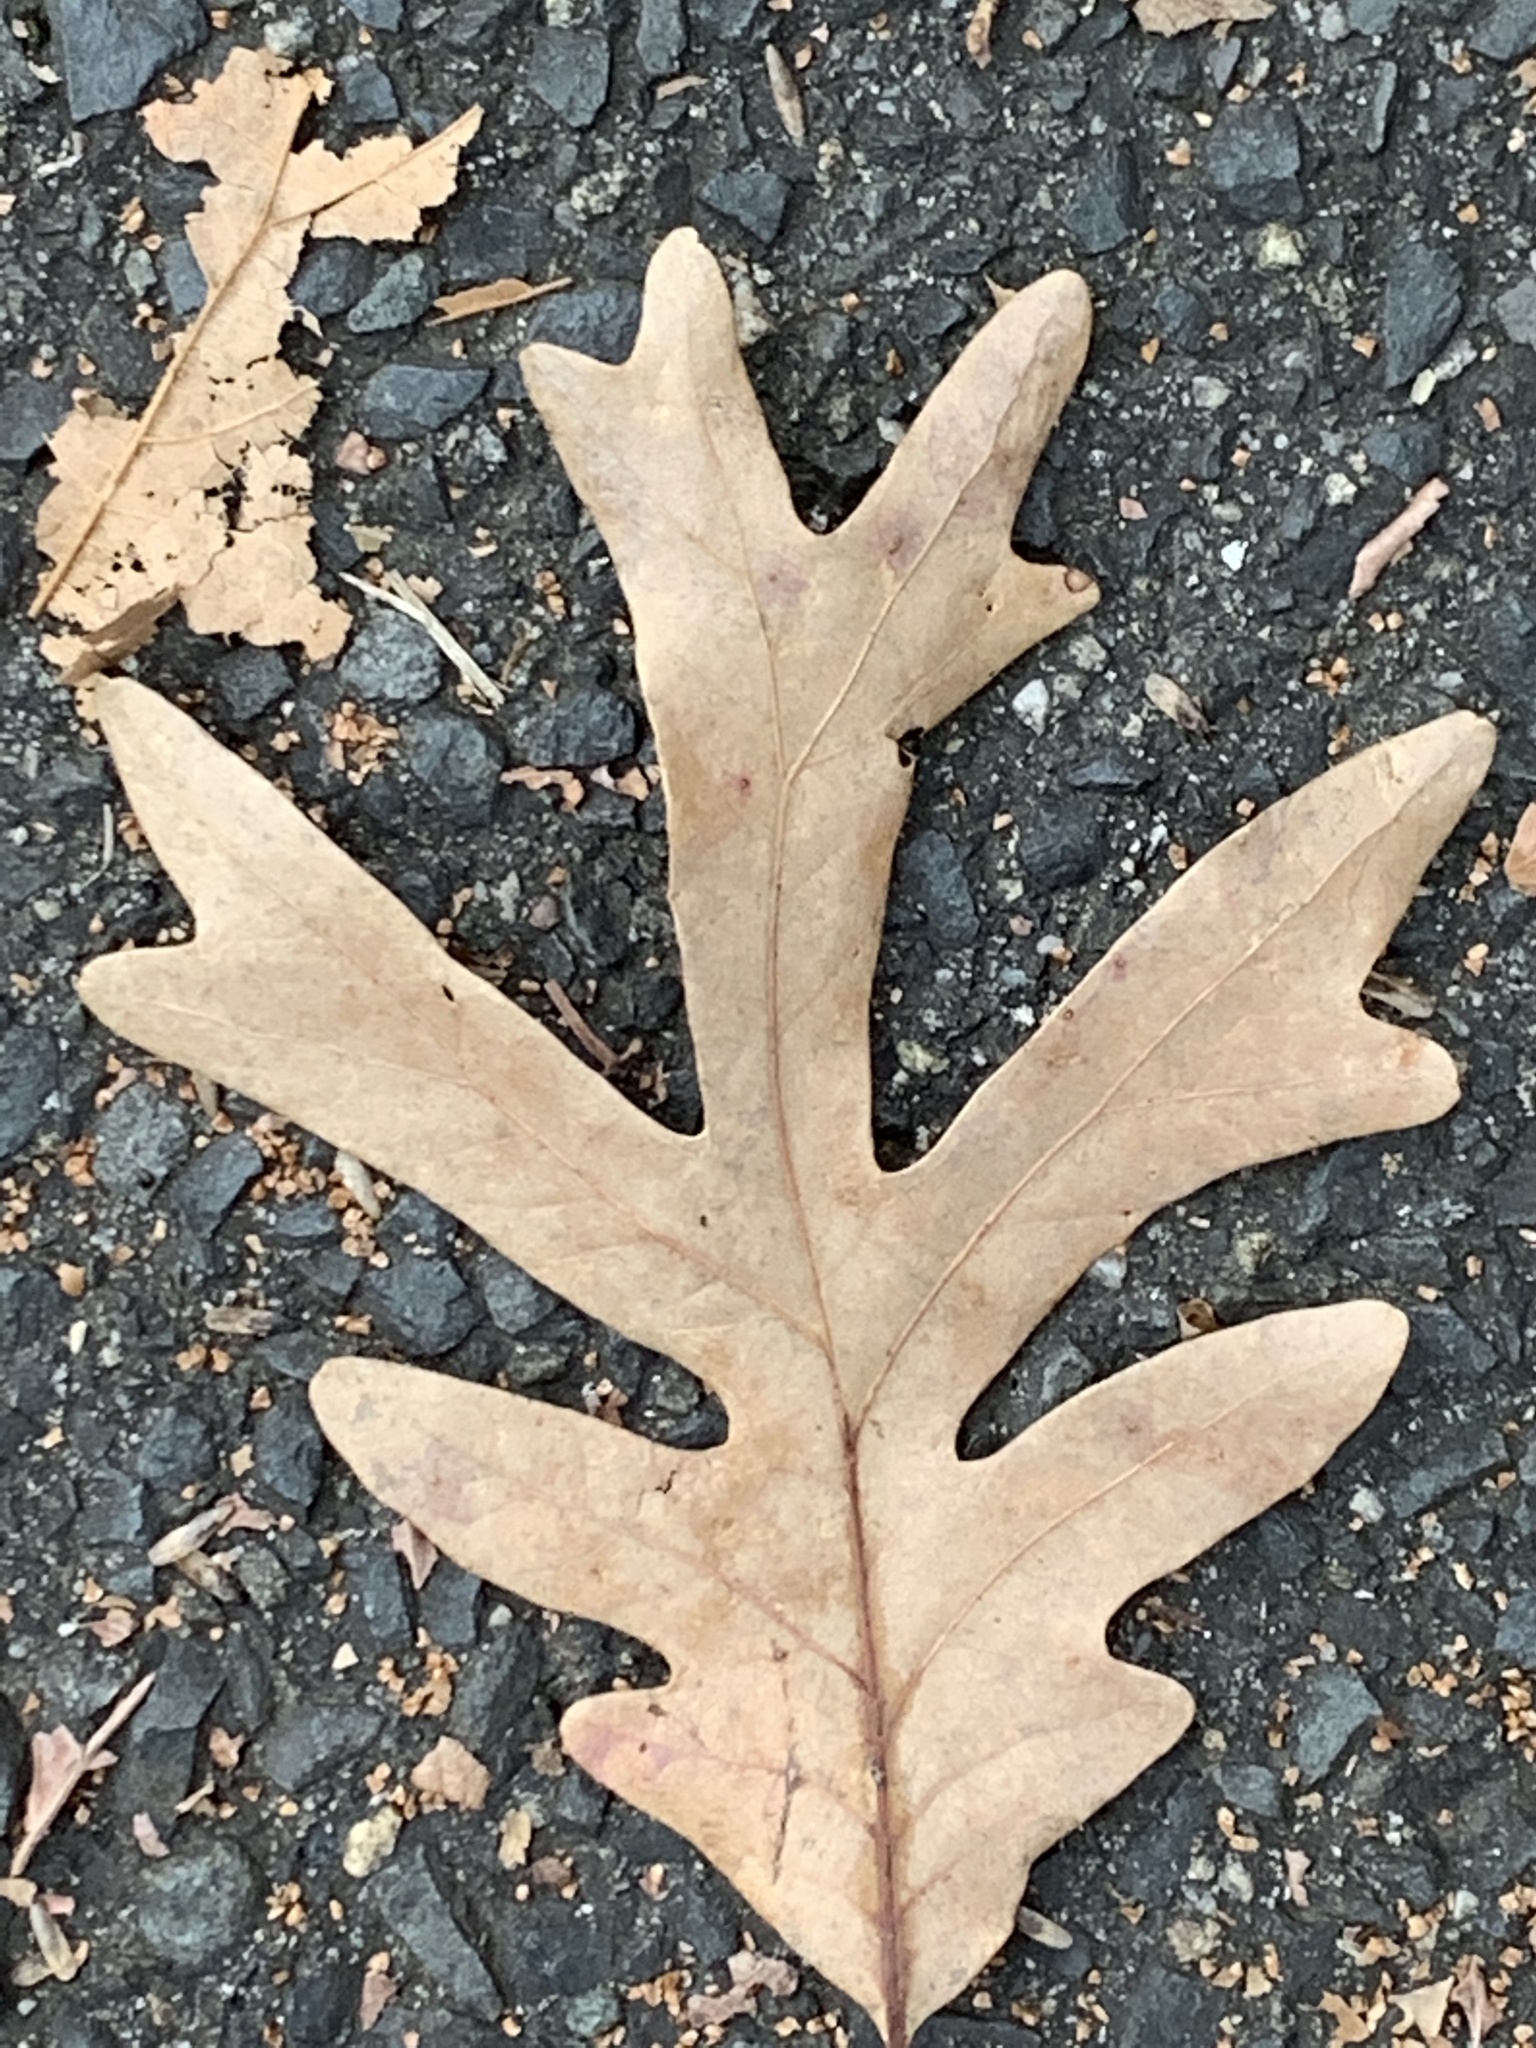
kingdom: Plantae
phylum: Tracheophyta
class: Magnoliopsida
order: Fagales
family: Fagaceae
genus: Quercus
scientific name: Quercus alba
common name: White oak
